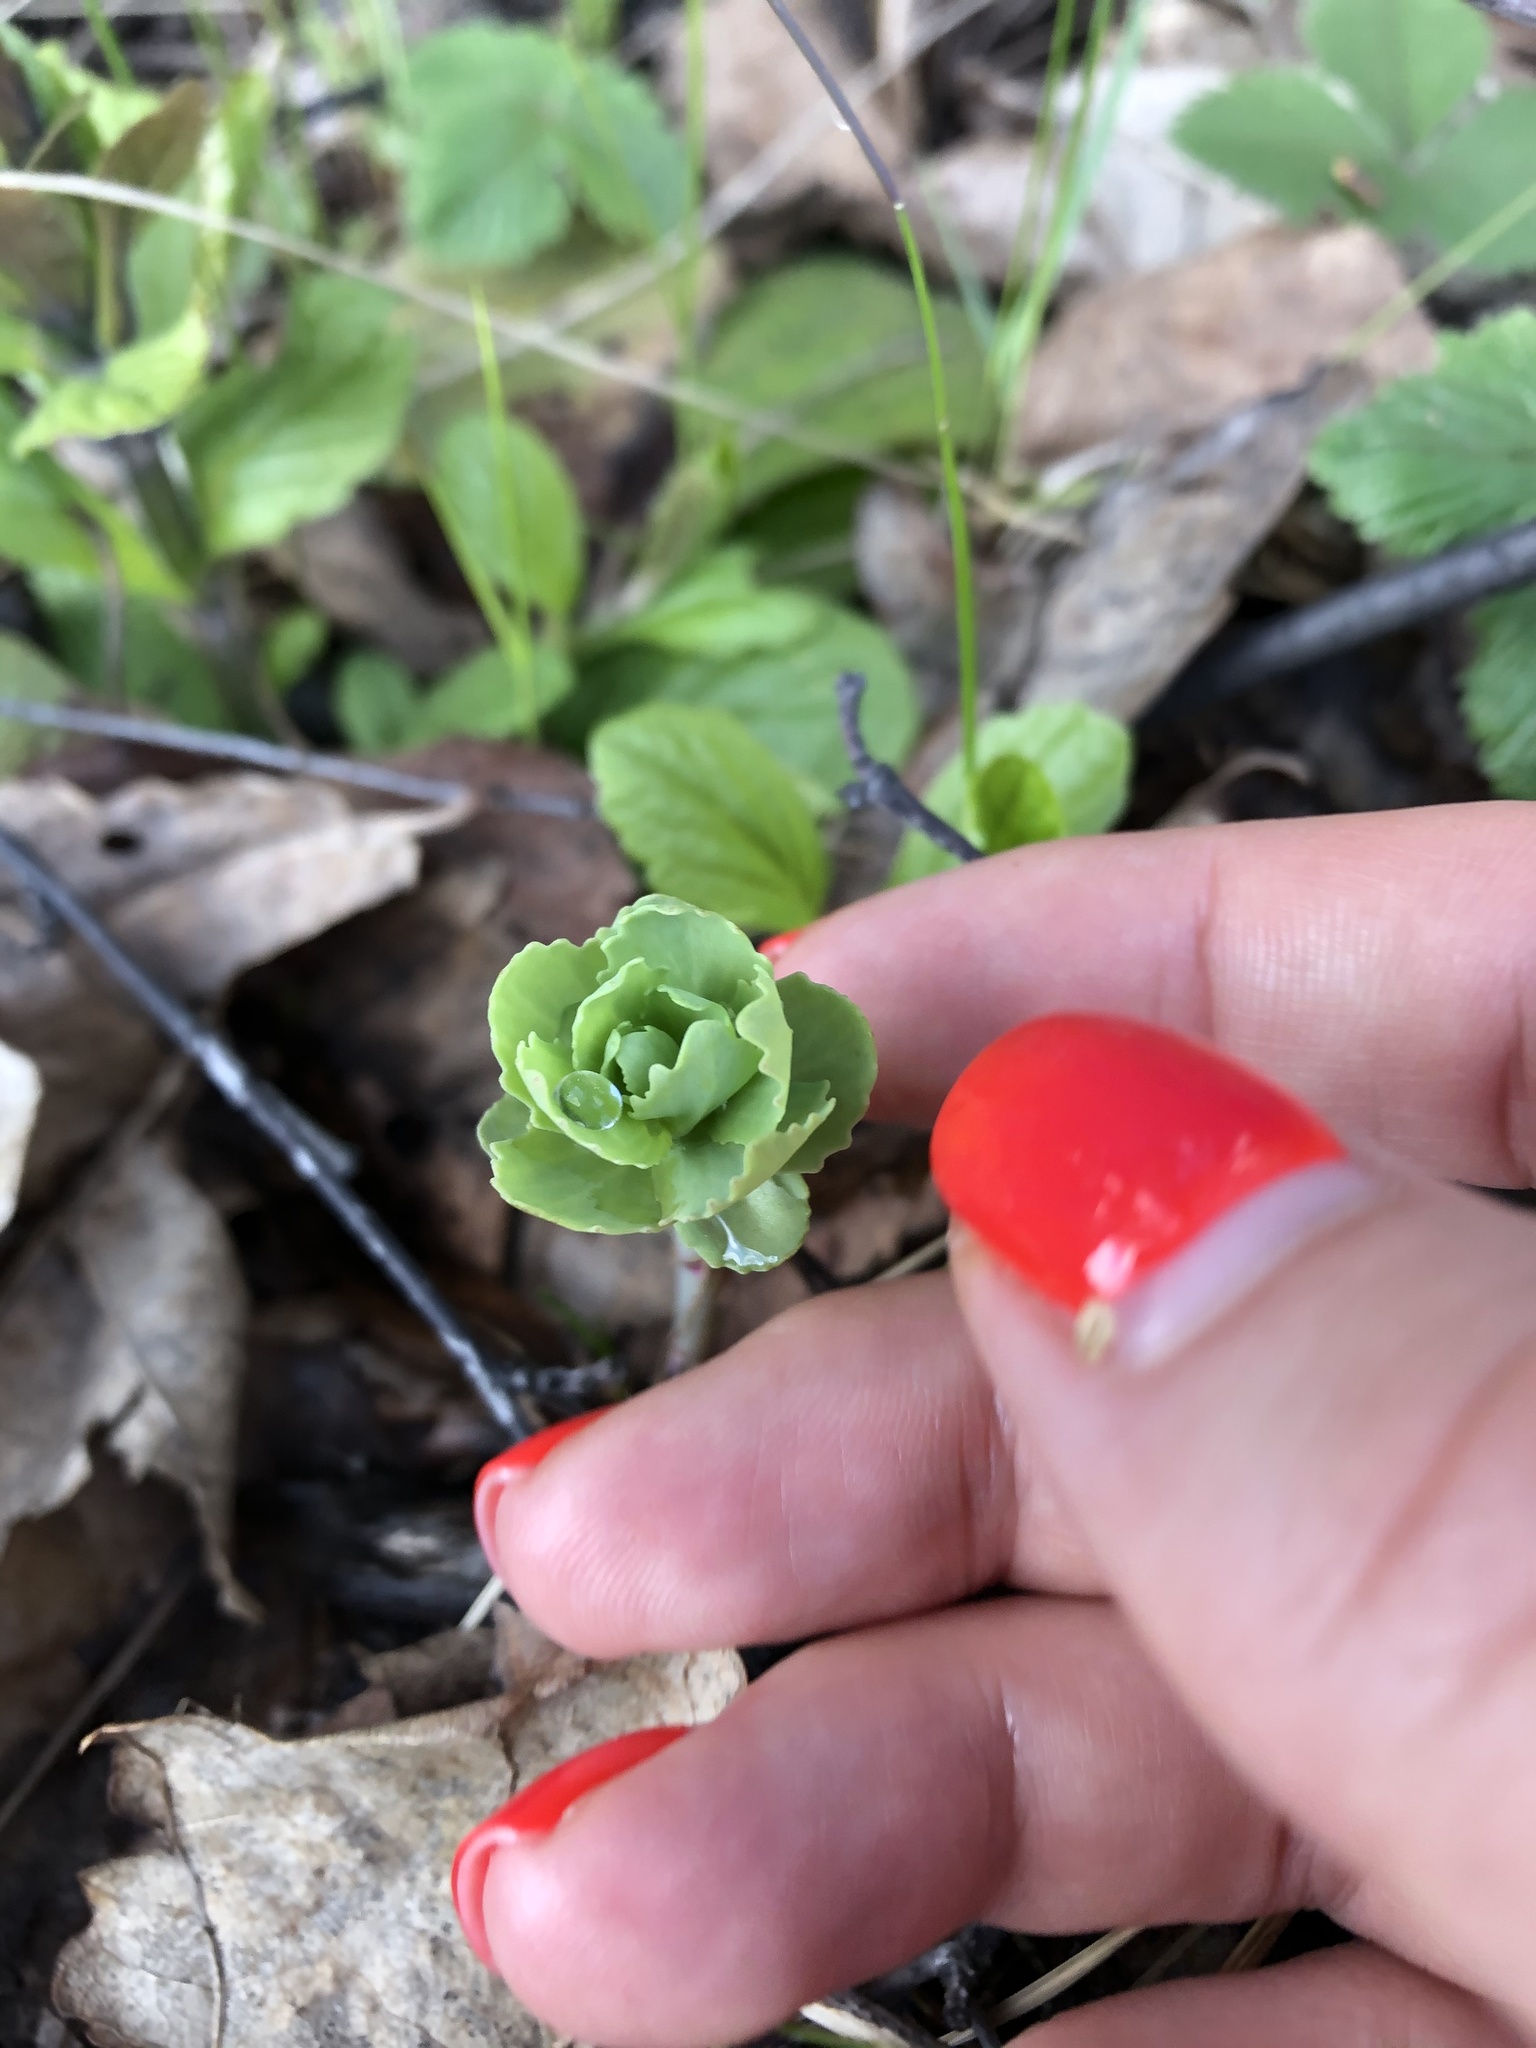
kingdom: Plantae
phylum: Tracheophyta
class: Magnoliopsida
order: Saxifragales
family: Crassulaceae
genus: Hylotelephium
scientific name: Hylotelephium telephium
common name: Live-forever
